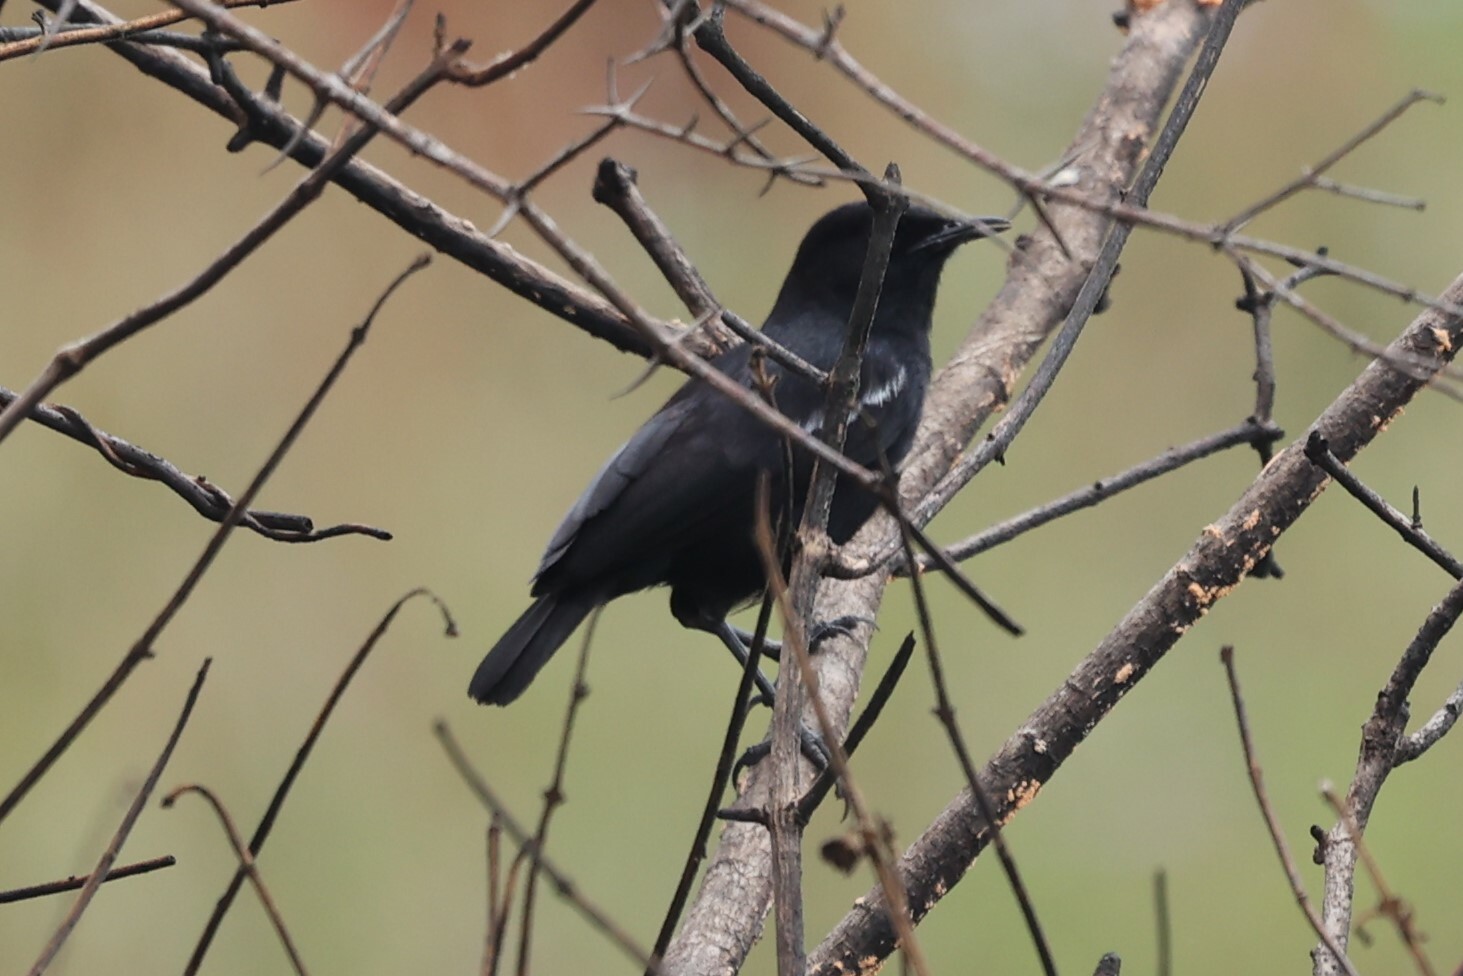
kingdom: Animalia
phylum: Chordata
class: Aves
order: Passeriformes
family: Muscicapidae
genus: Myrmecocichla
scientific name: Myrmecocichla nigra
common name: Sooty chat
